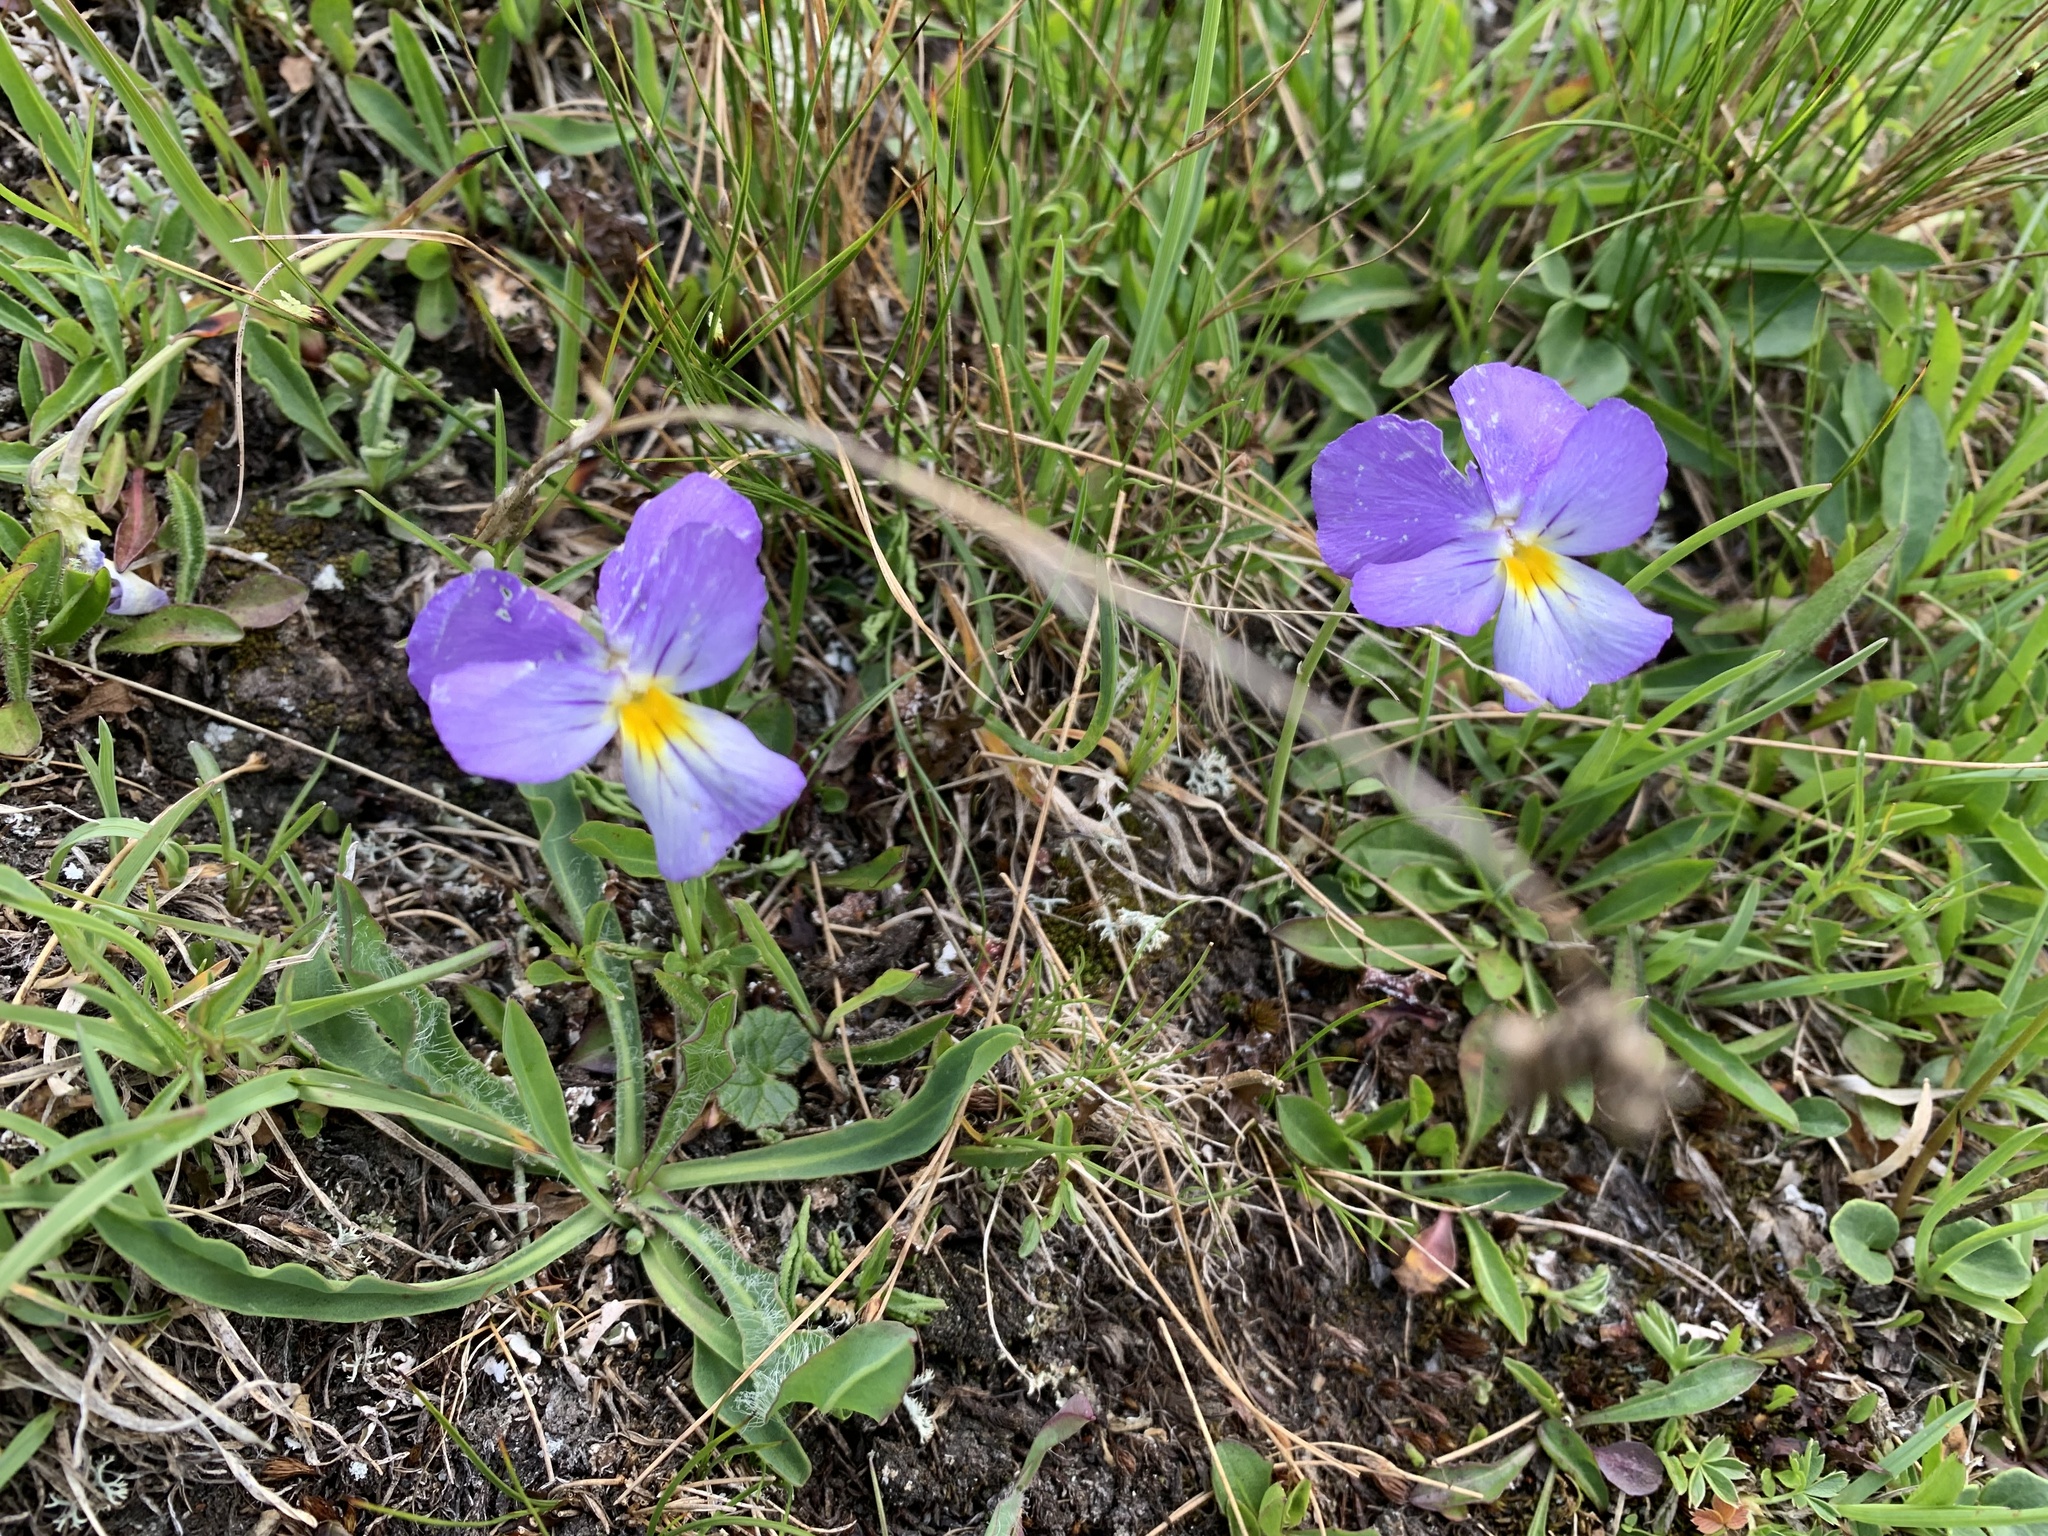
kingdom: Plantae
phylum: Tracheophyta
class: Magnoliopsida
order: Malpighiales
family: Violaceae
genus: Viola
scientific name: Viola calcarata
